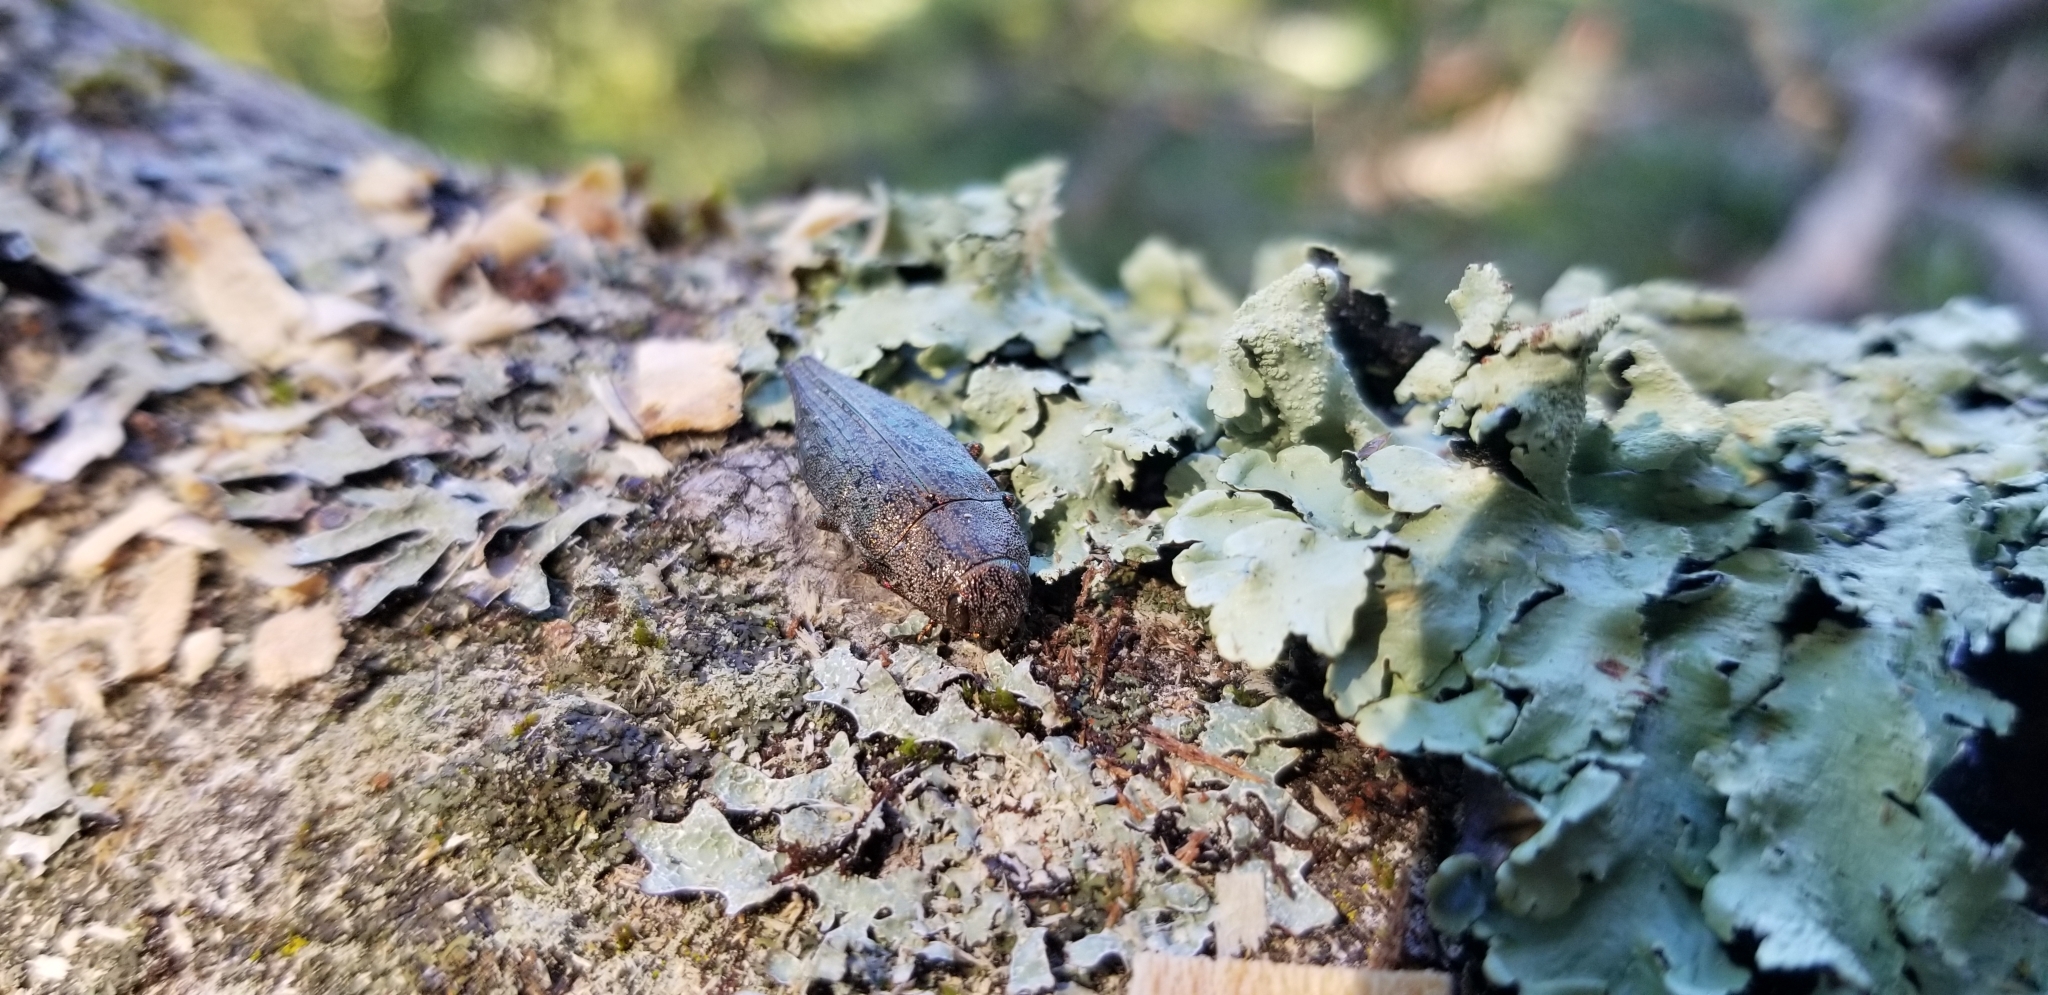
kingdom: Animalia
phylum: Arthropoda
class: Insecta
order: Coleoptera
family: Buprestidae
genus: Dicerca
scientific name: Dicerca divaricata
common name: Flat-headed hardwood borer
